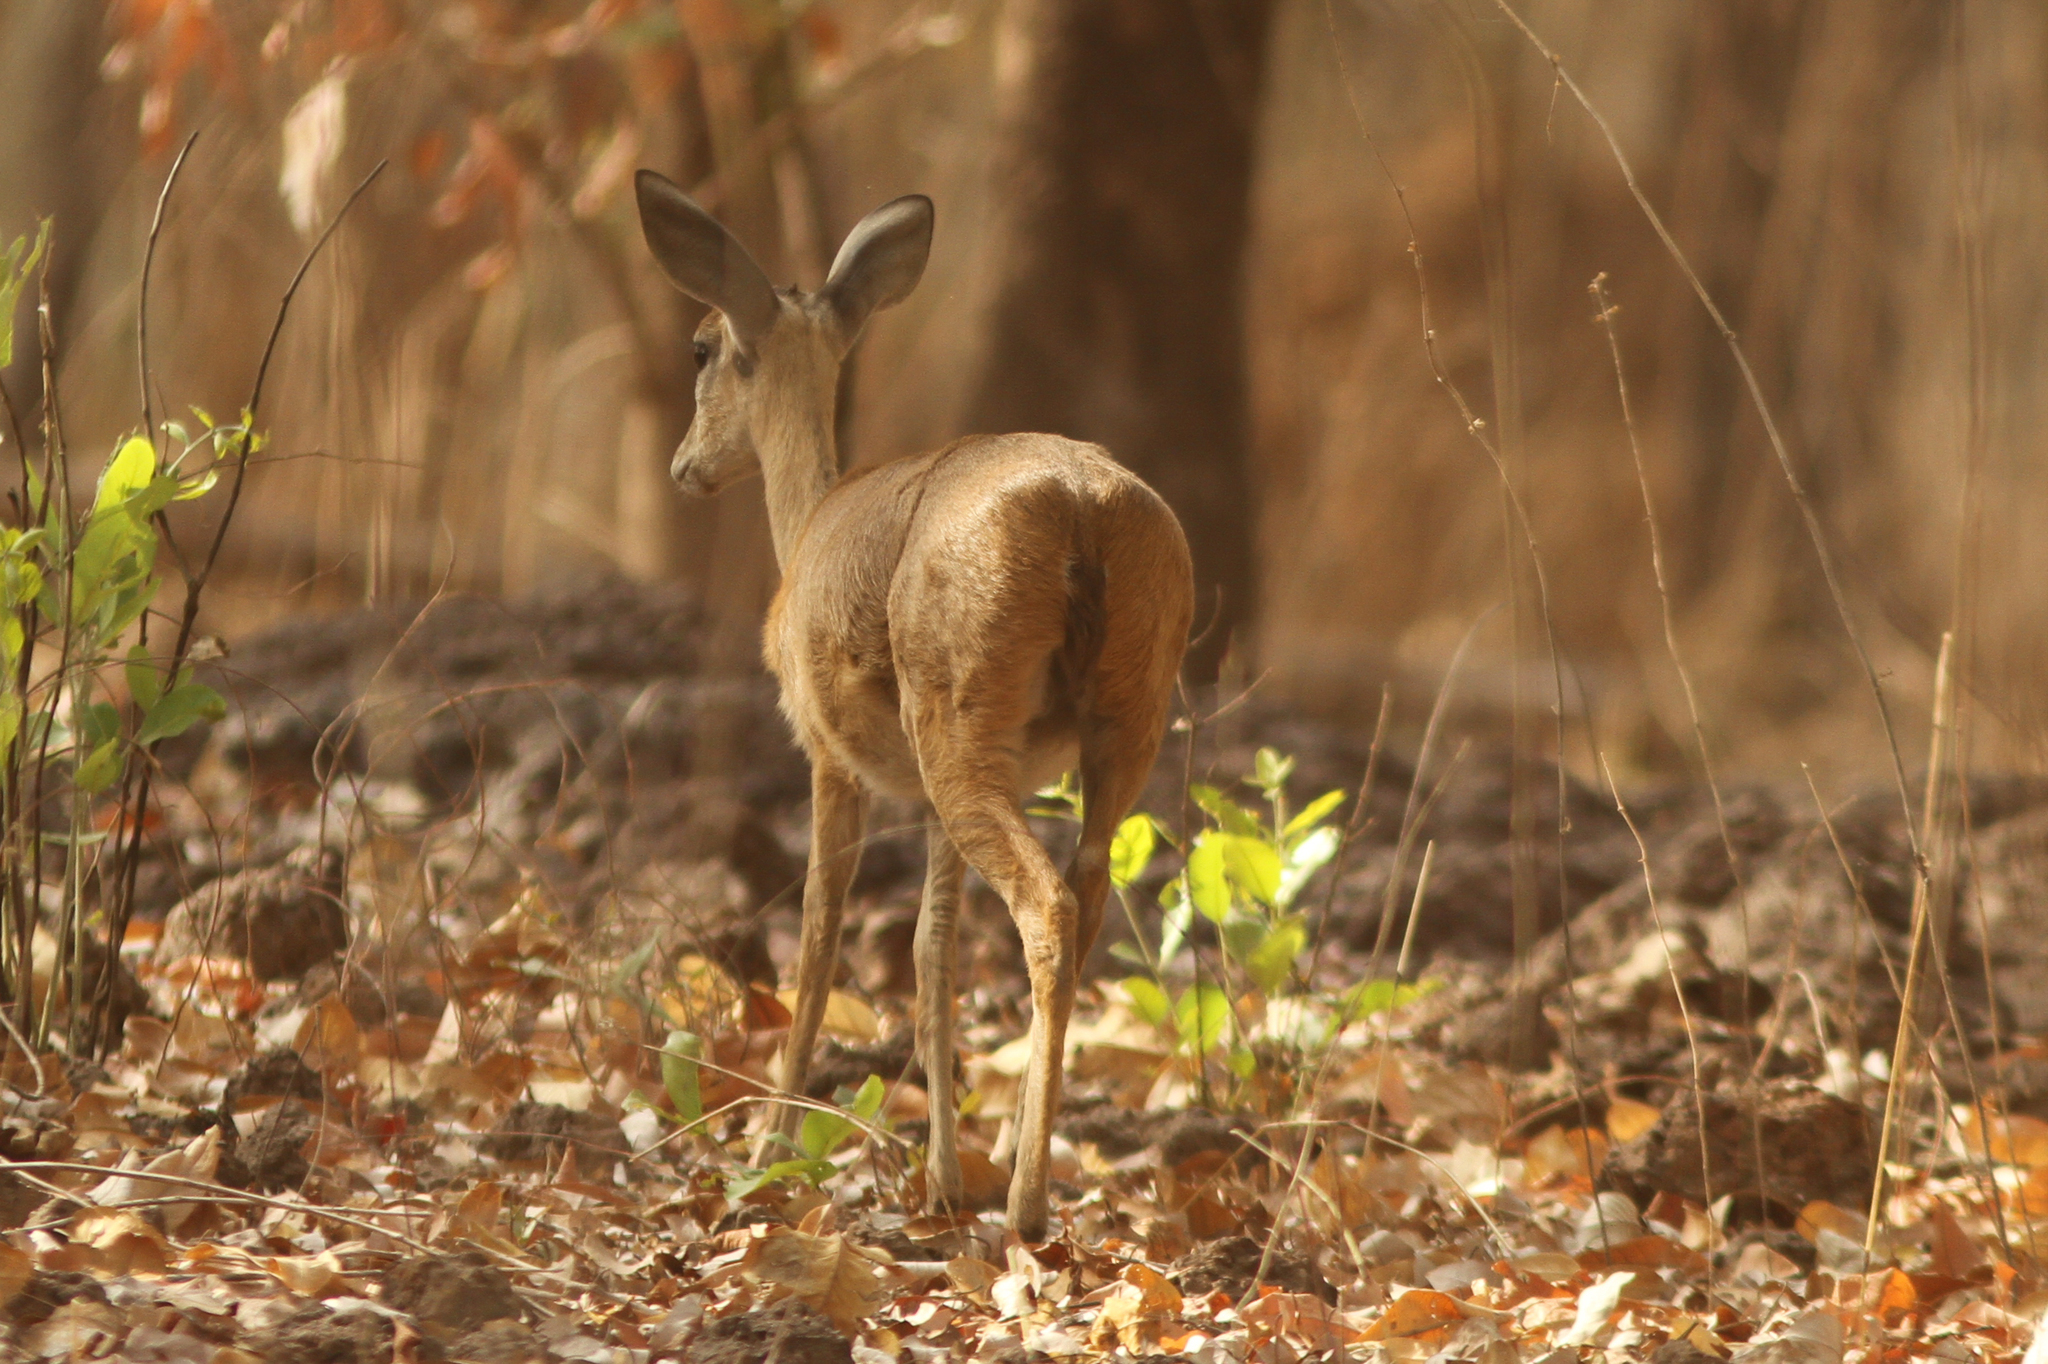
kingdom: Animalia
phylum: Chordata
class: Mammalia
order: Artiodactyla
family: Bovidae
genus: Ourebia
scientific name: Ourebia ourebi
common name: Oribi
